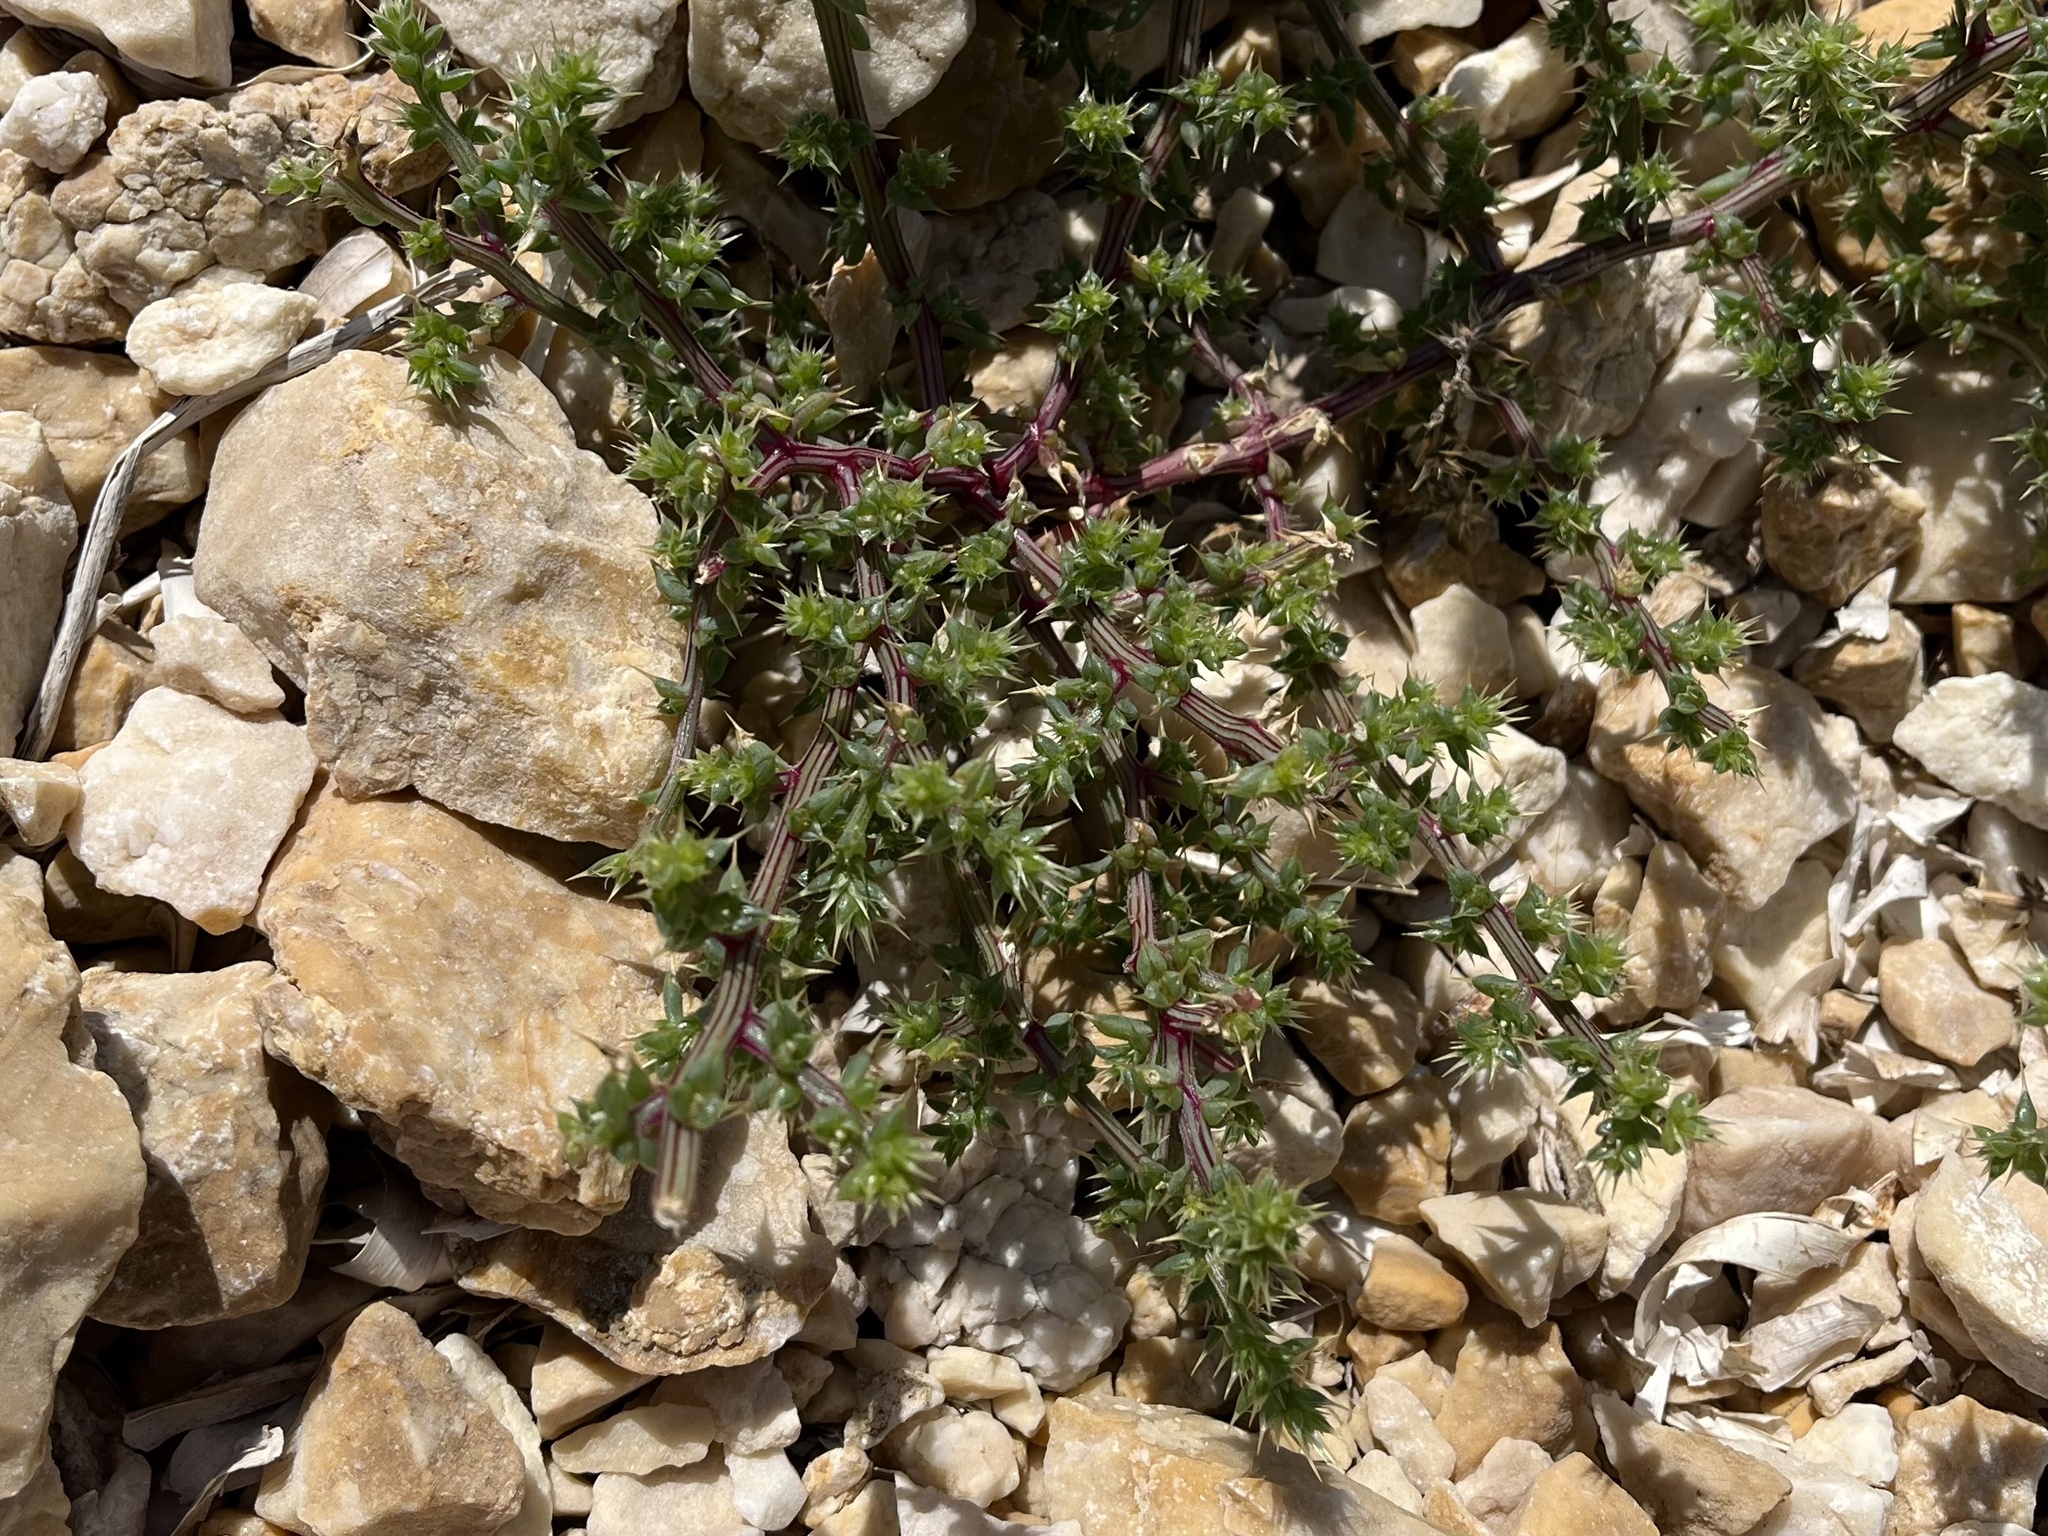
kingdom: Plantae
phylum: Tracheophyta
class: Magnoliopsida
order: Caryophyllales
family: Amaranthaceae
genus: Salsola
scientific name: Salsola kali
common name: Saltwort
